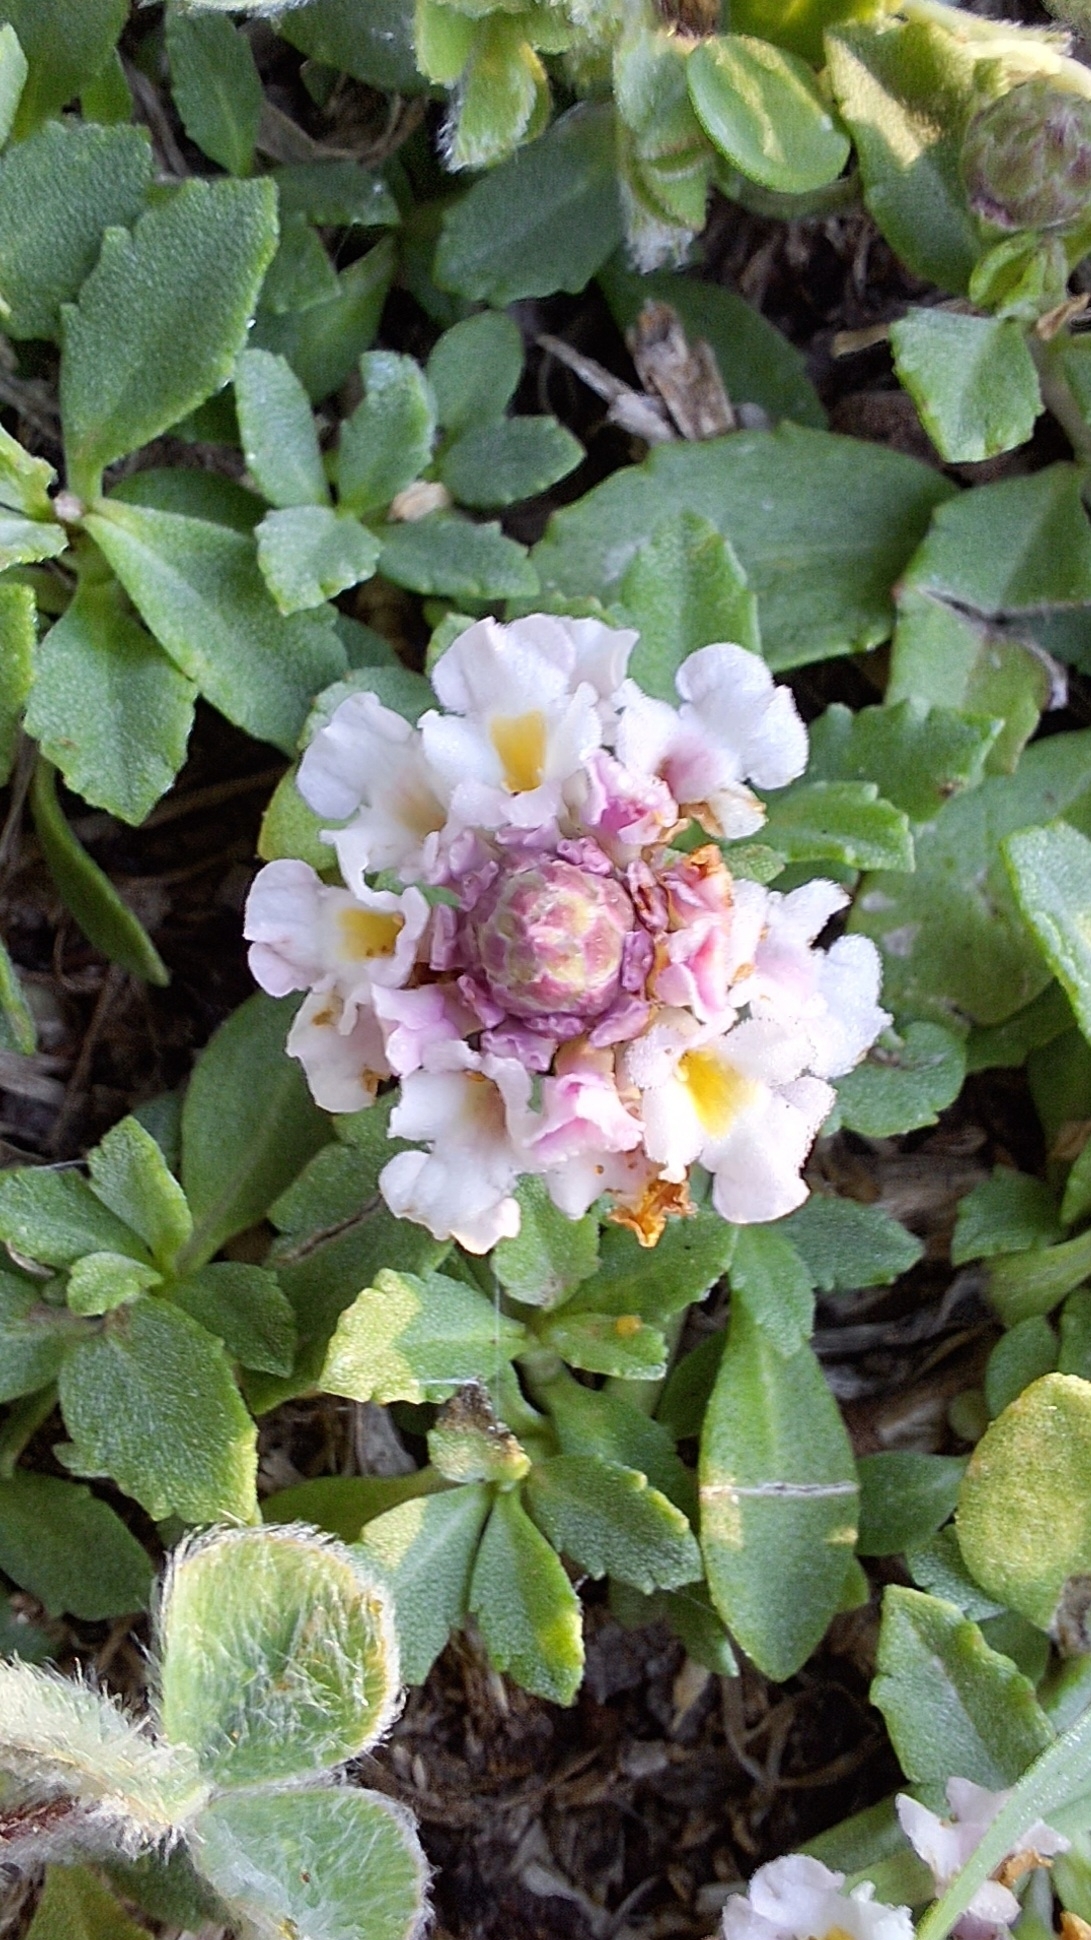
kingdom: Plantae
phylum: Tracheophyta
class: Magnoliopsida
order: Lamiales
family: Verbenaceae
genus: Phyla
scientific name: Phyla nodiflora
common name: Frogfruit
